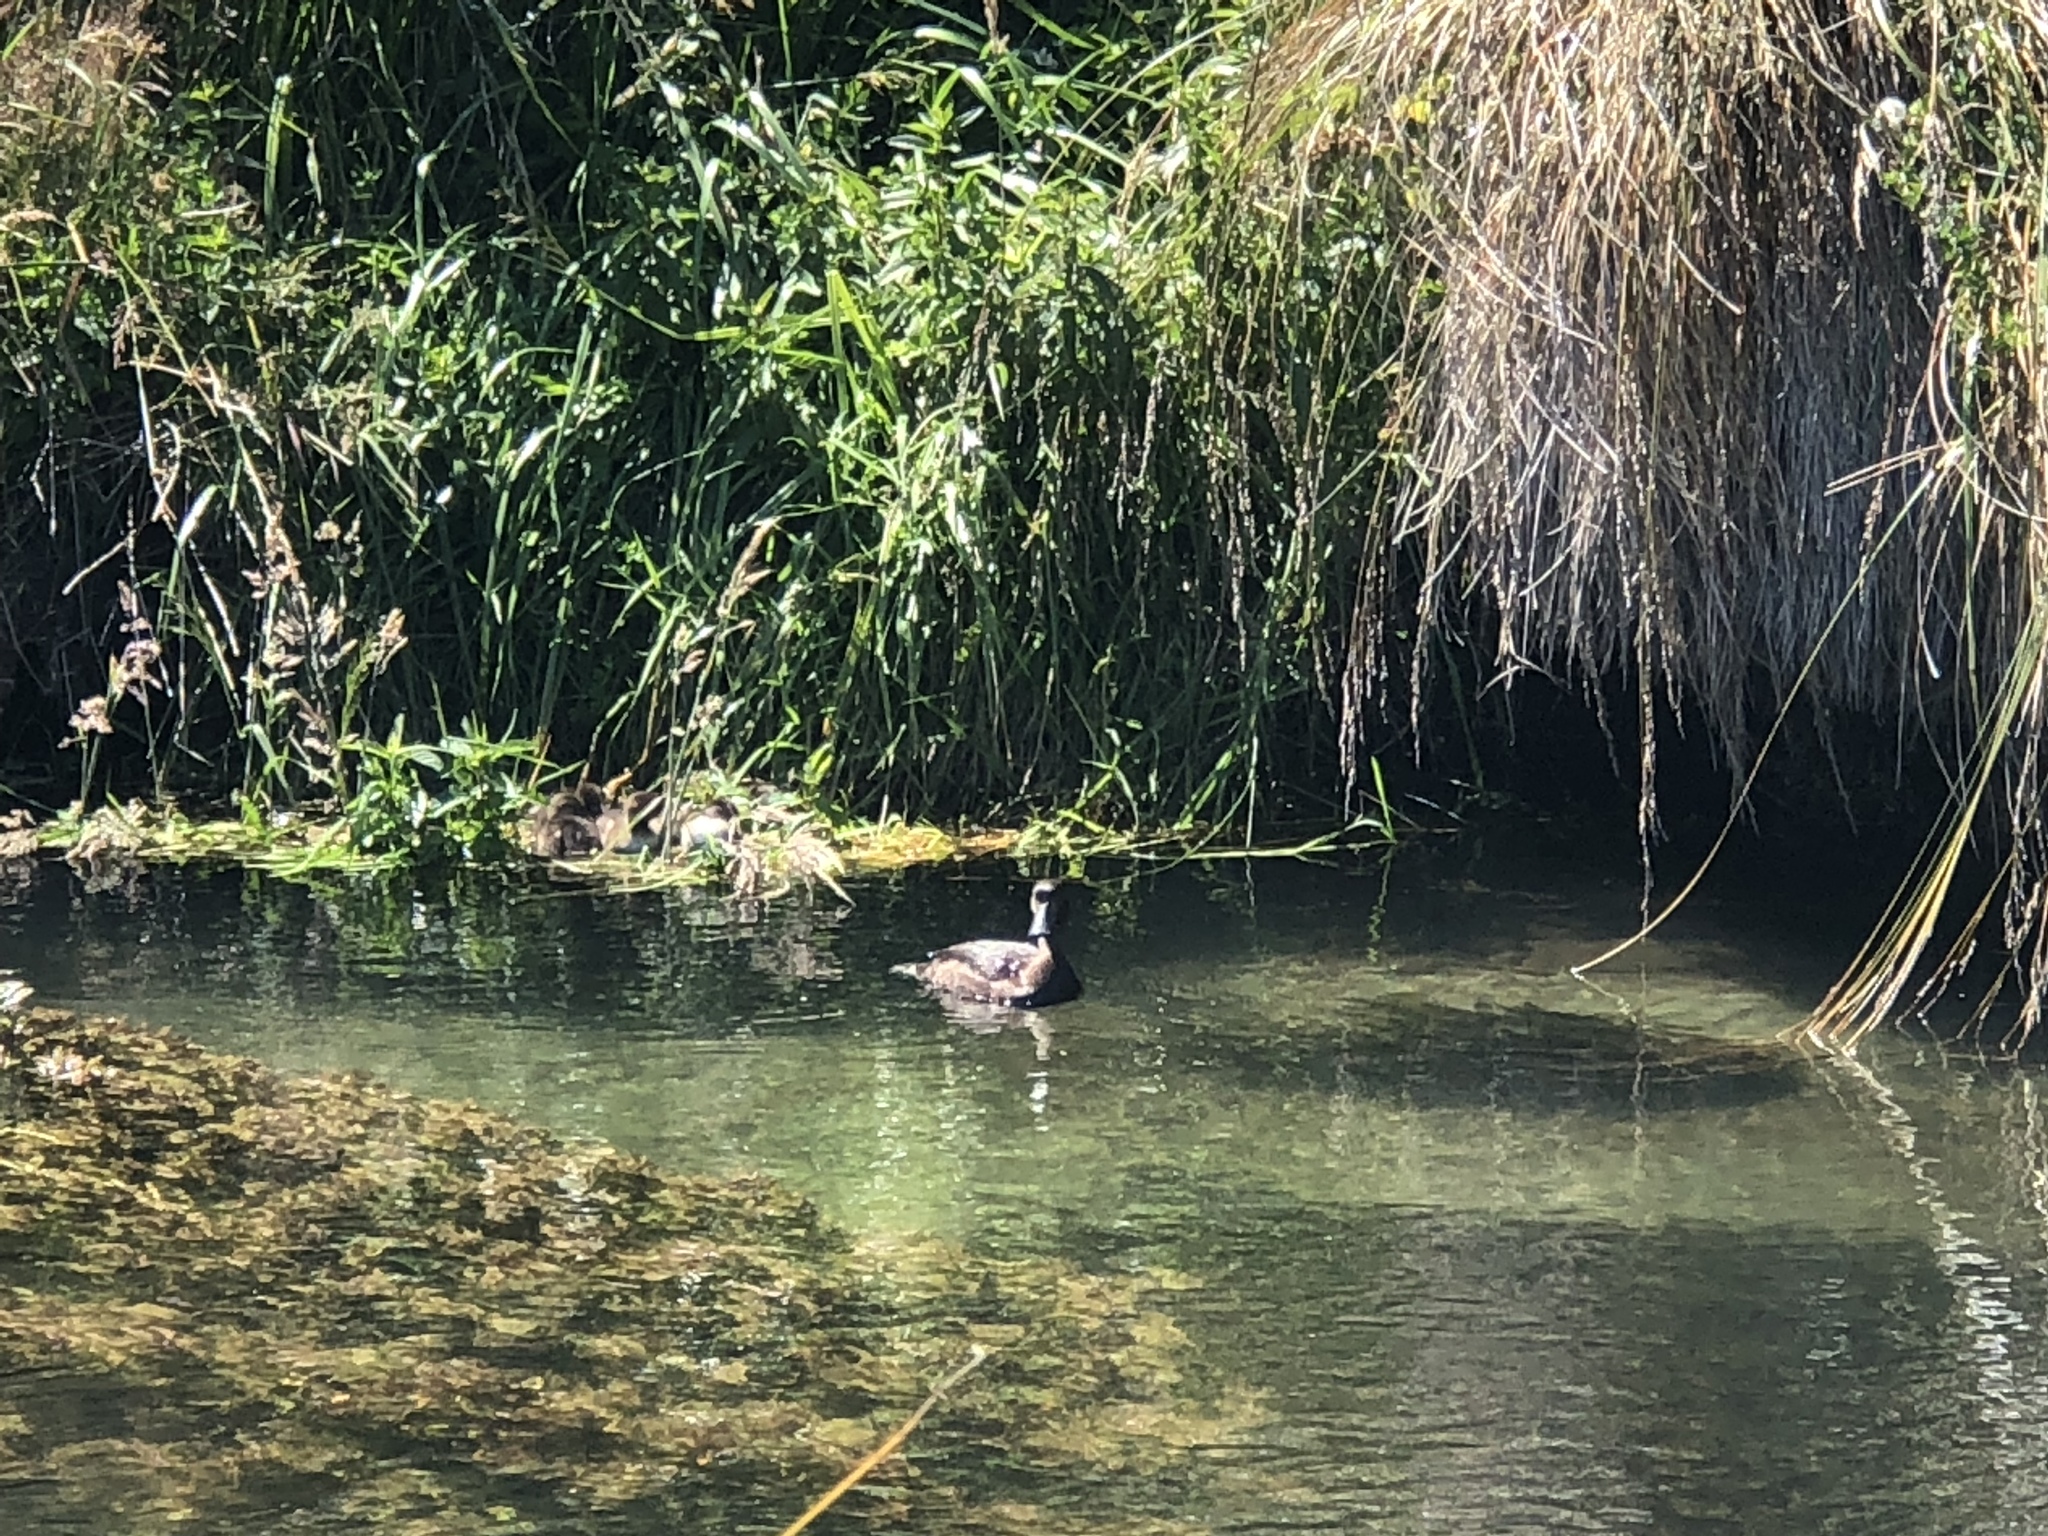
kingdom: Animalia
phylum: Chordata
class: Aves
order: Anseriformes
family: Anatidae
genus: Aythya
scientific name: Aythya novaeseelandiae
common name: New zealand scaup
